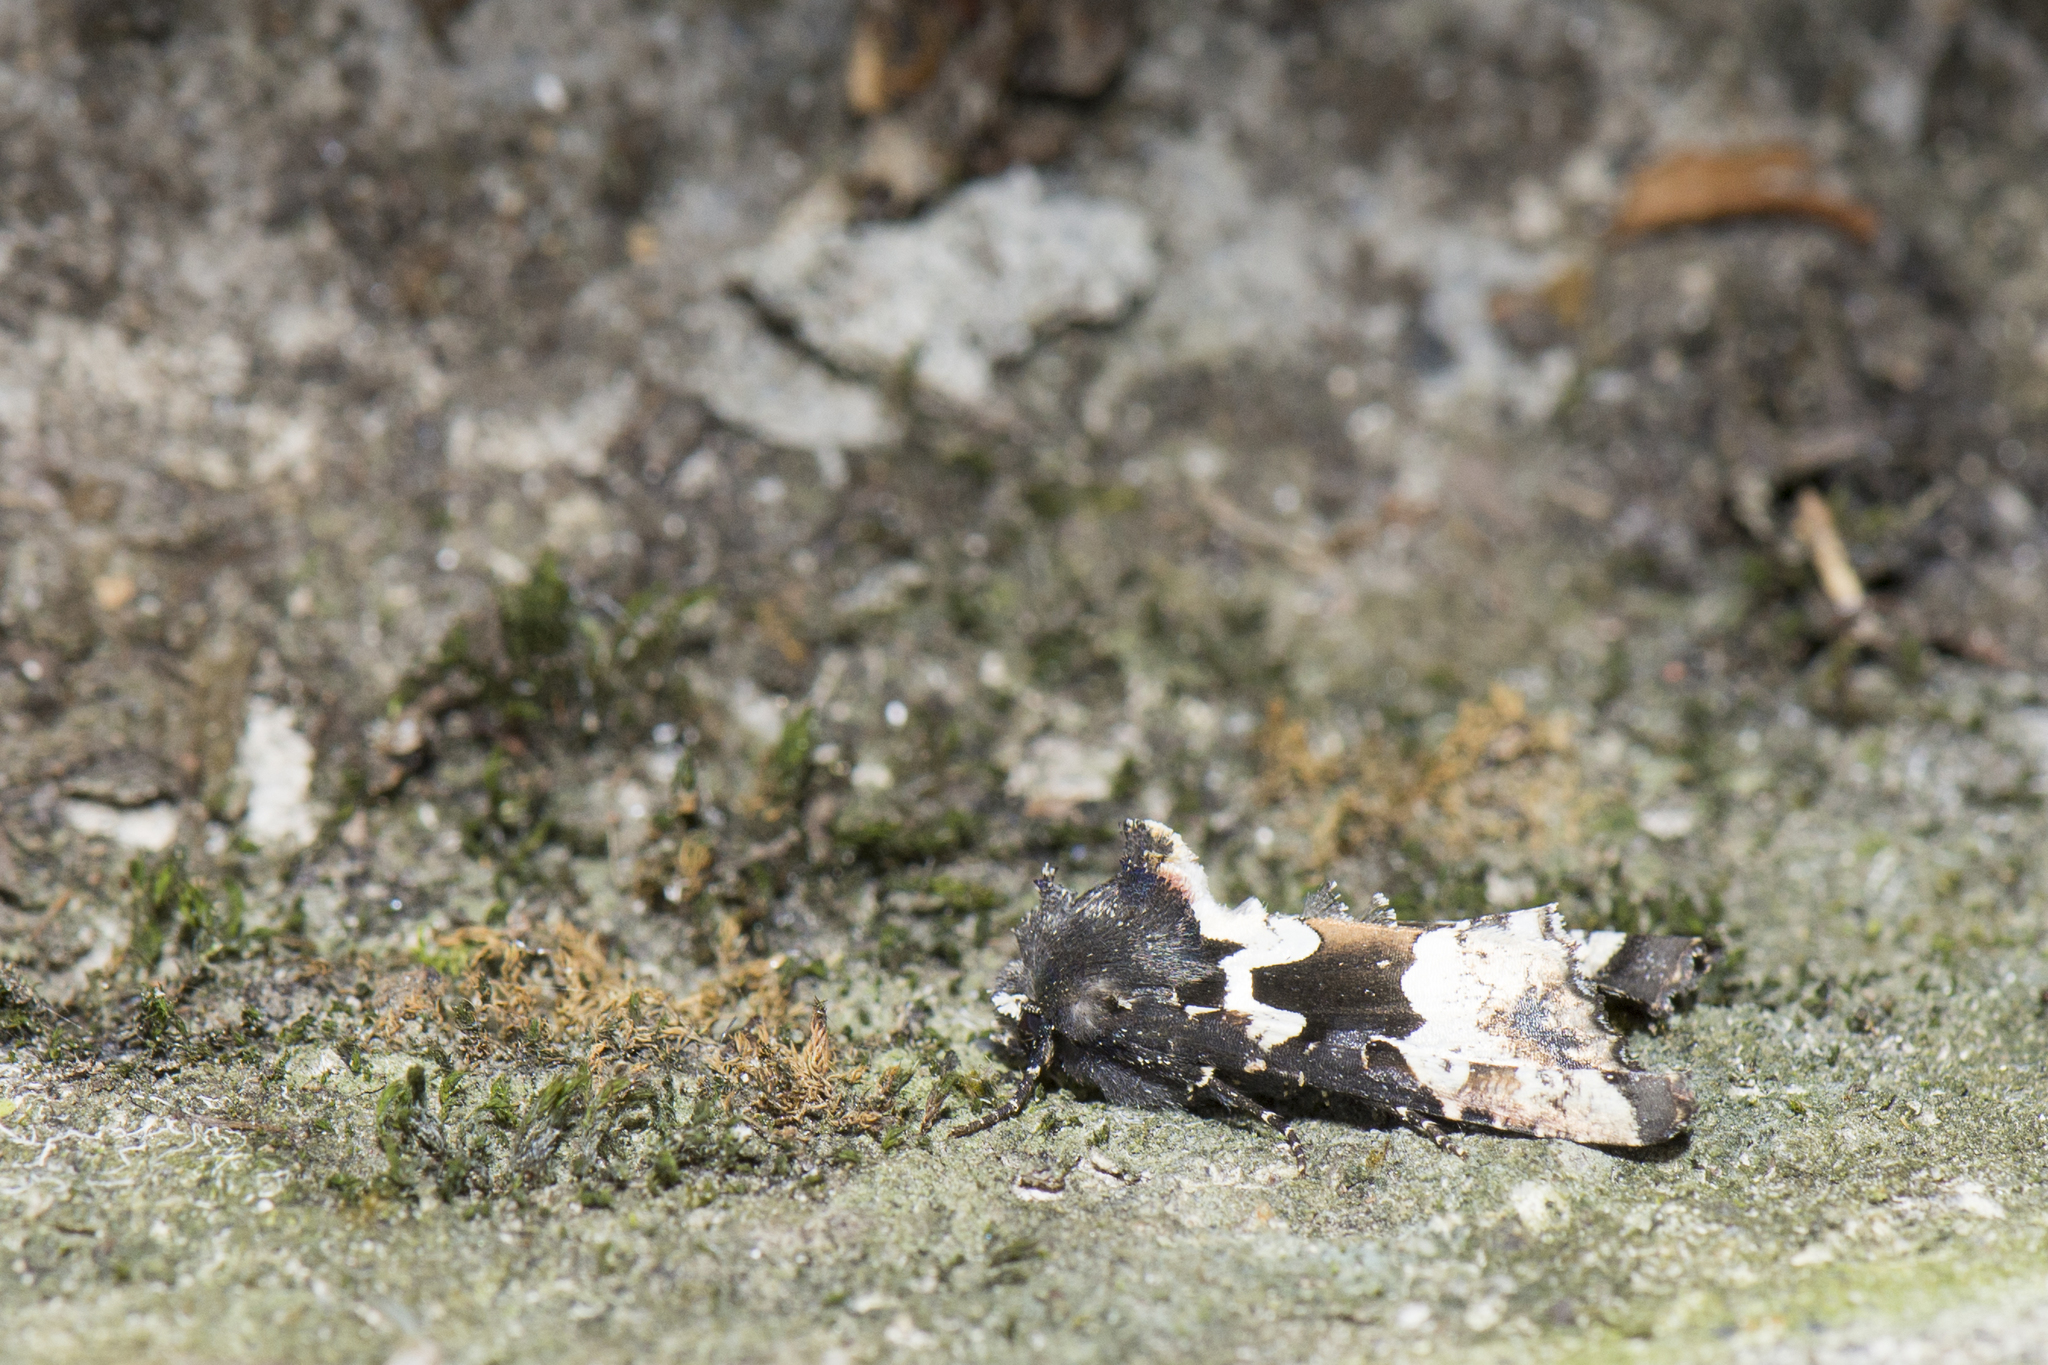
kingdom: Animalia
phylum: Arthropoda
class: Insecta
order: Lepidoptera
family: Noctuidae
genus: Phlogophora
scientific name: Phlogophora albovittata
